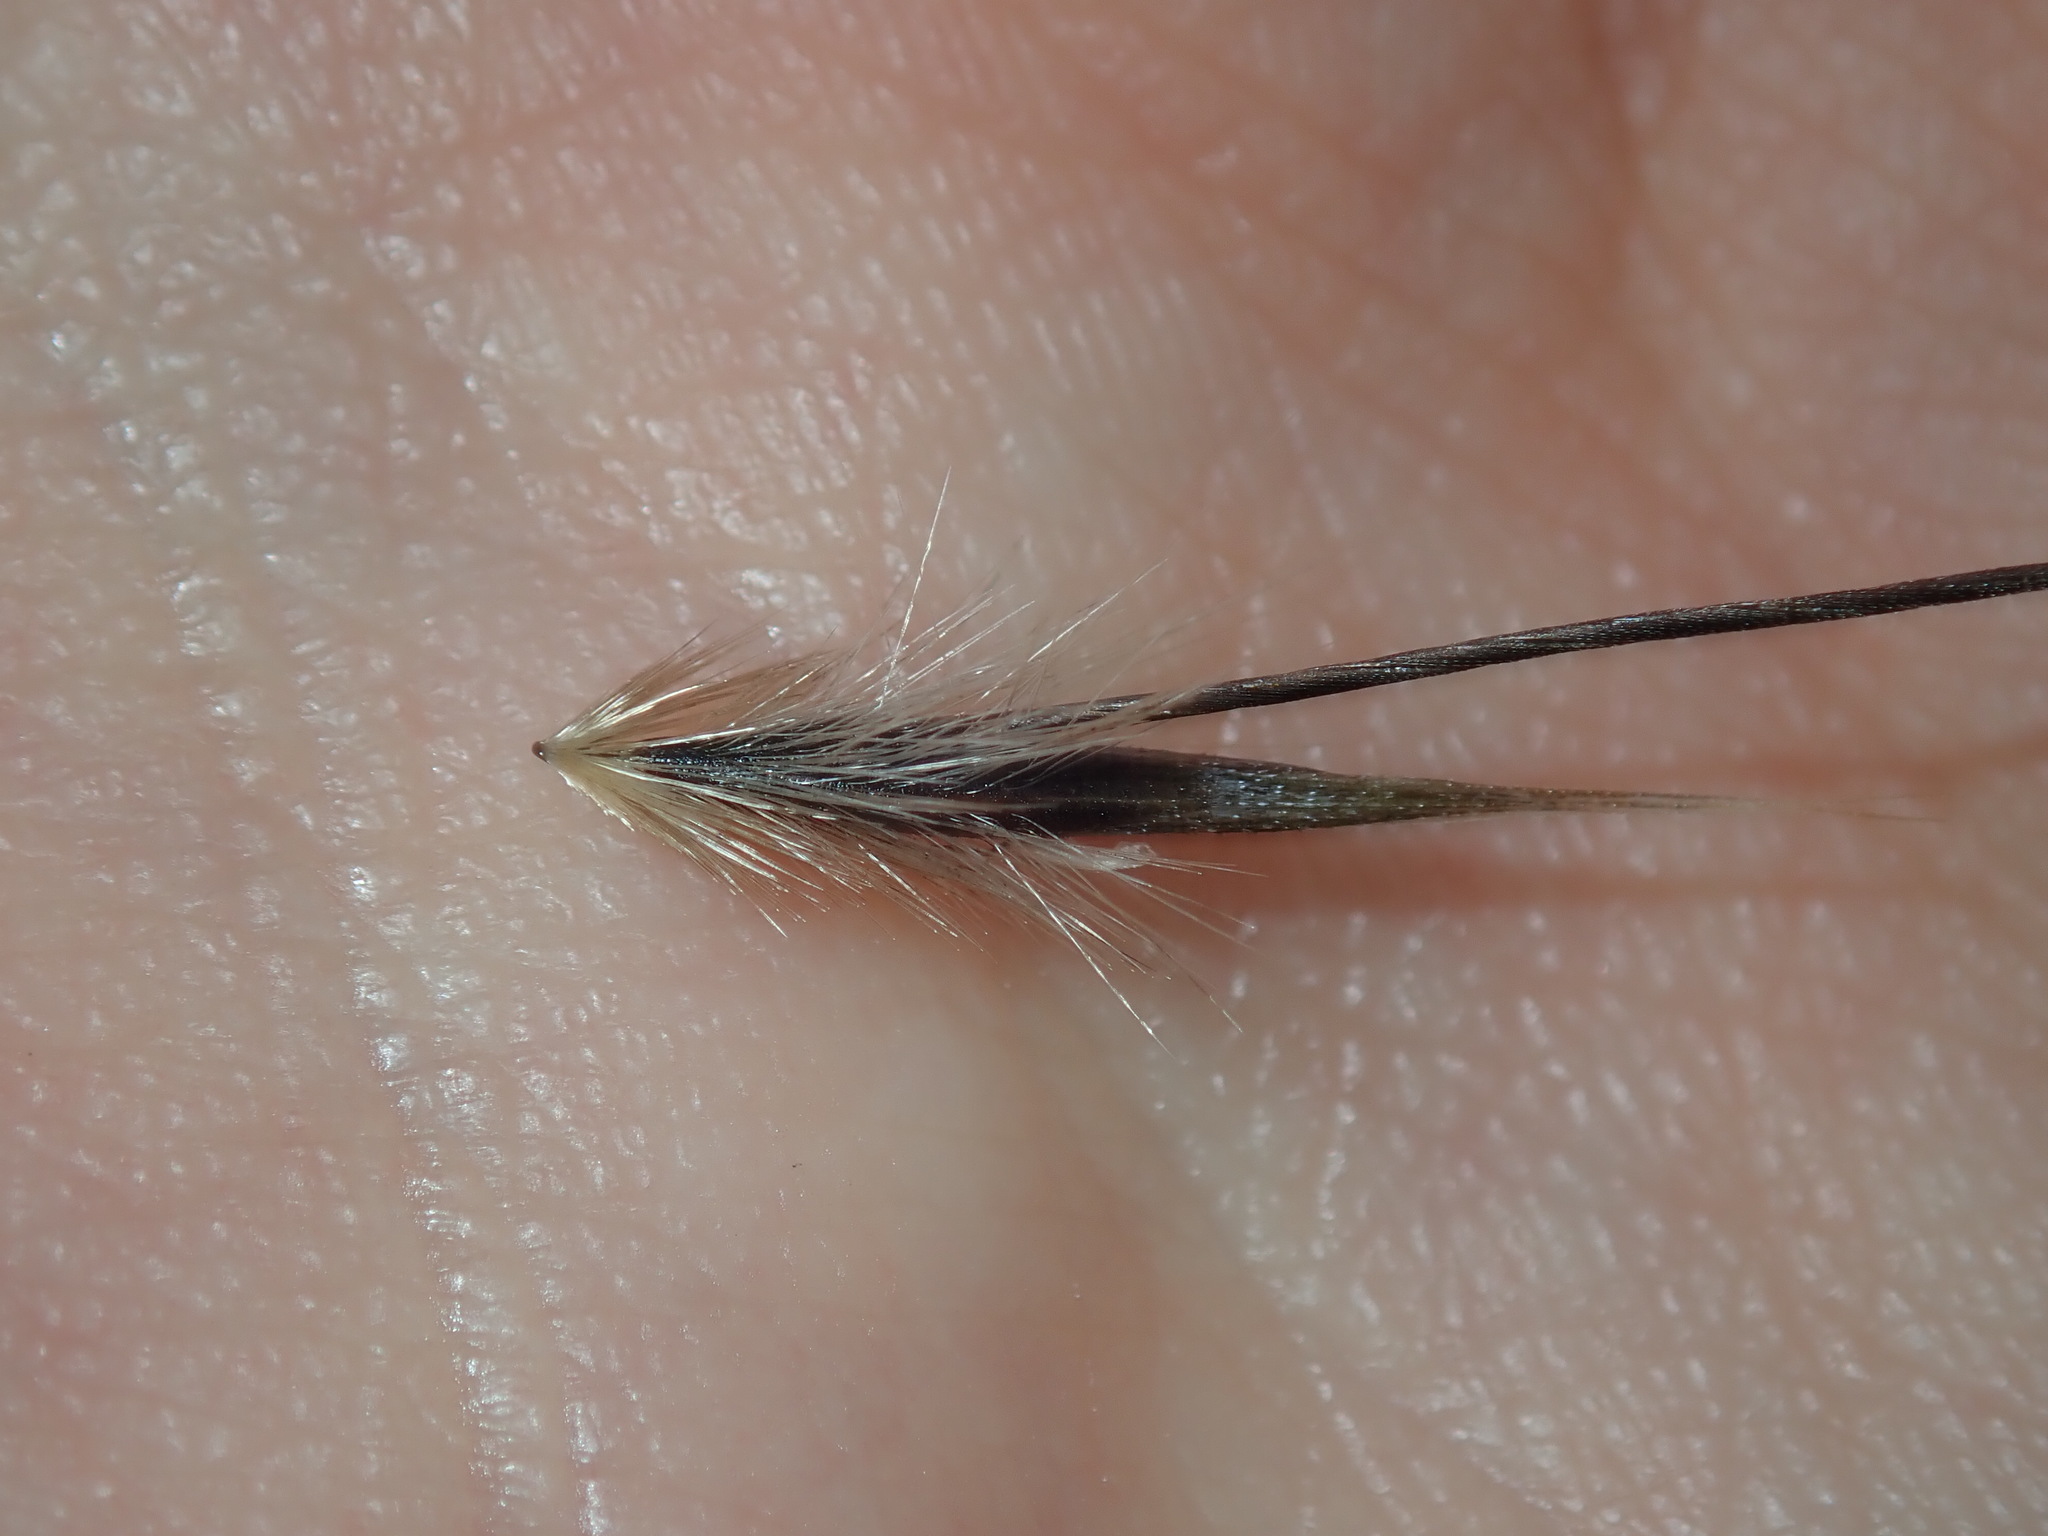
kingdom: Plantae
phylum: Tracheophyta
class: Liliopsida
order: Poales
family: Poaceae
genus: Avena
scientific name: Avena barbata
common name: Slender oat
